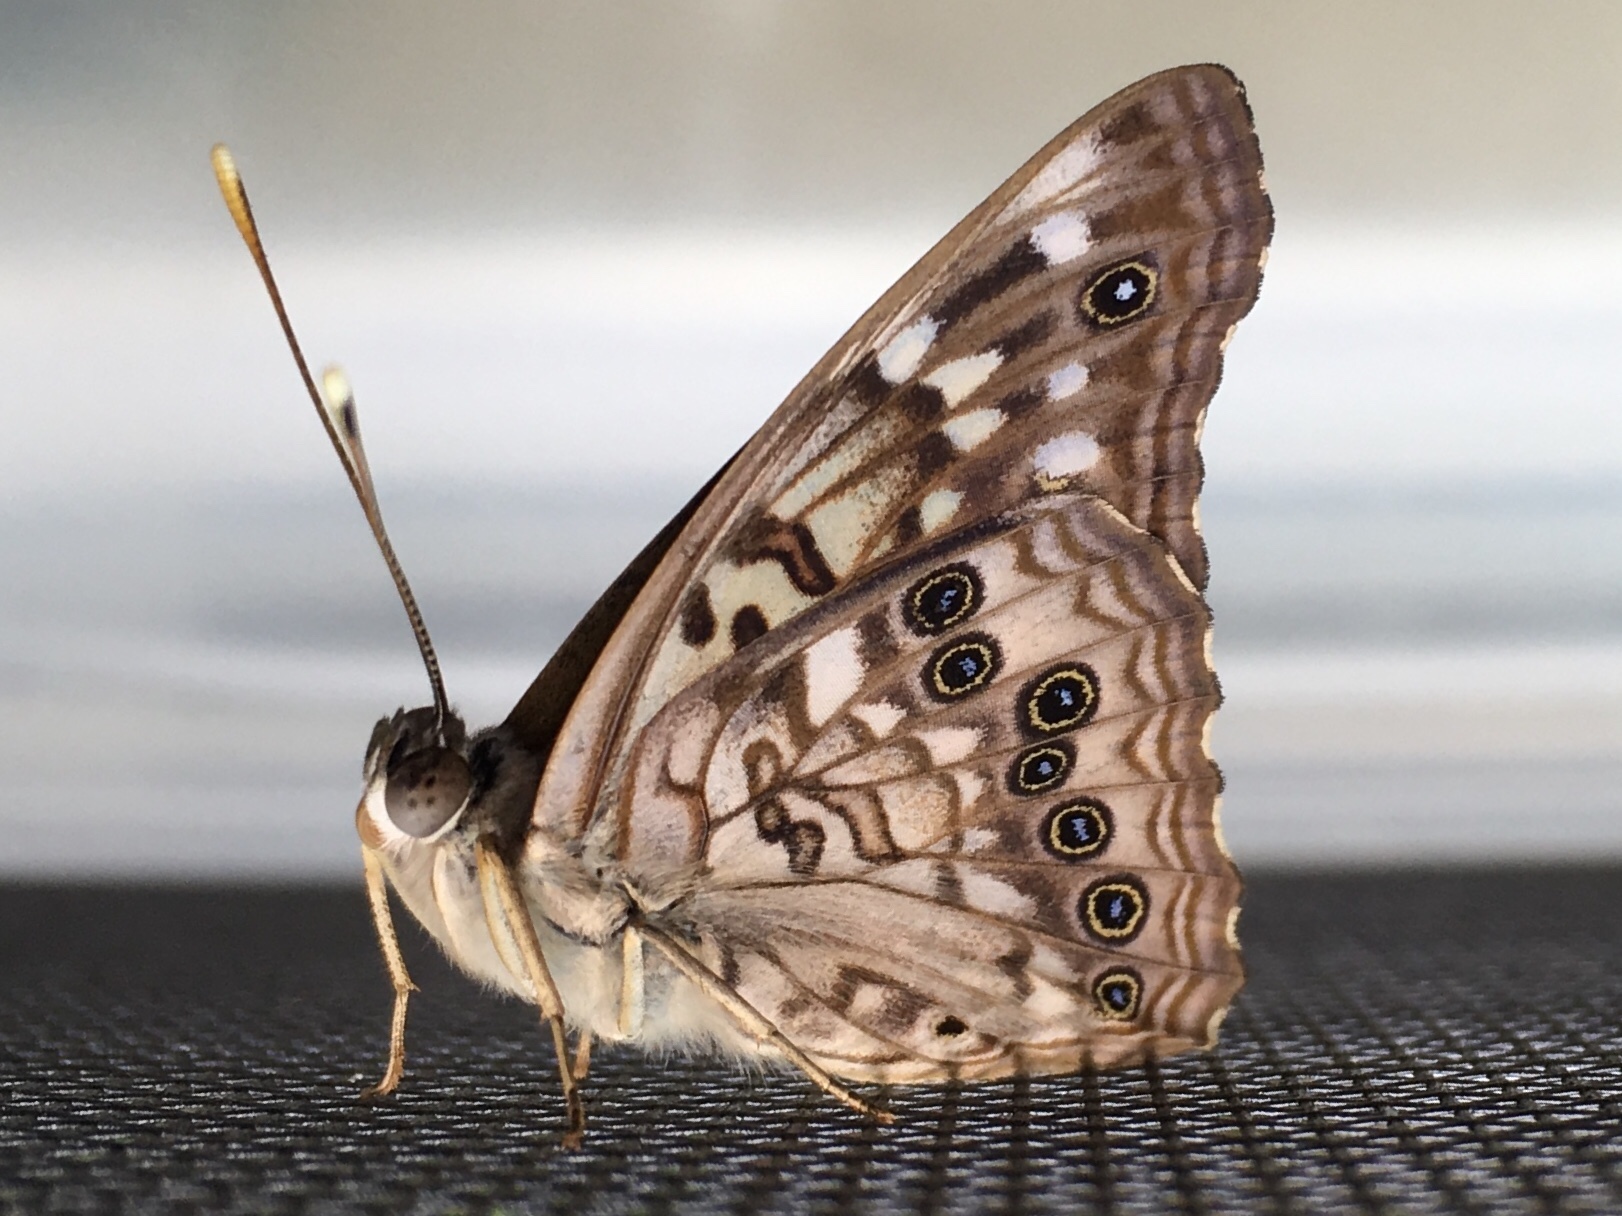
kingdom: Animalia
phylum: Arthropoda
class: Insecta
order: Lepidoptera
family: Nymphalidae
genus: Asterocampa
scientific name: Asterocampa celtis
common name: Hackberry emperor
